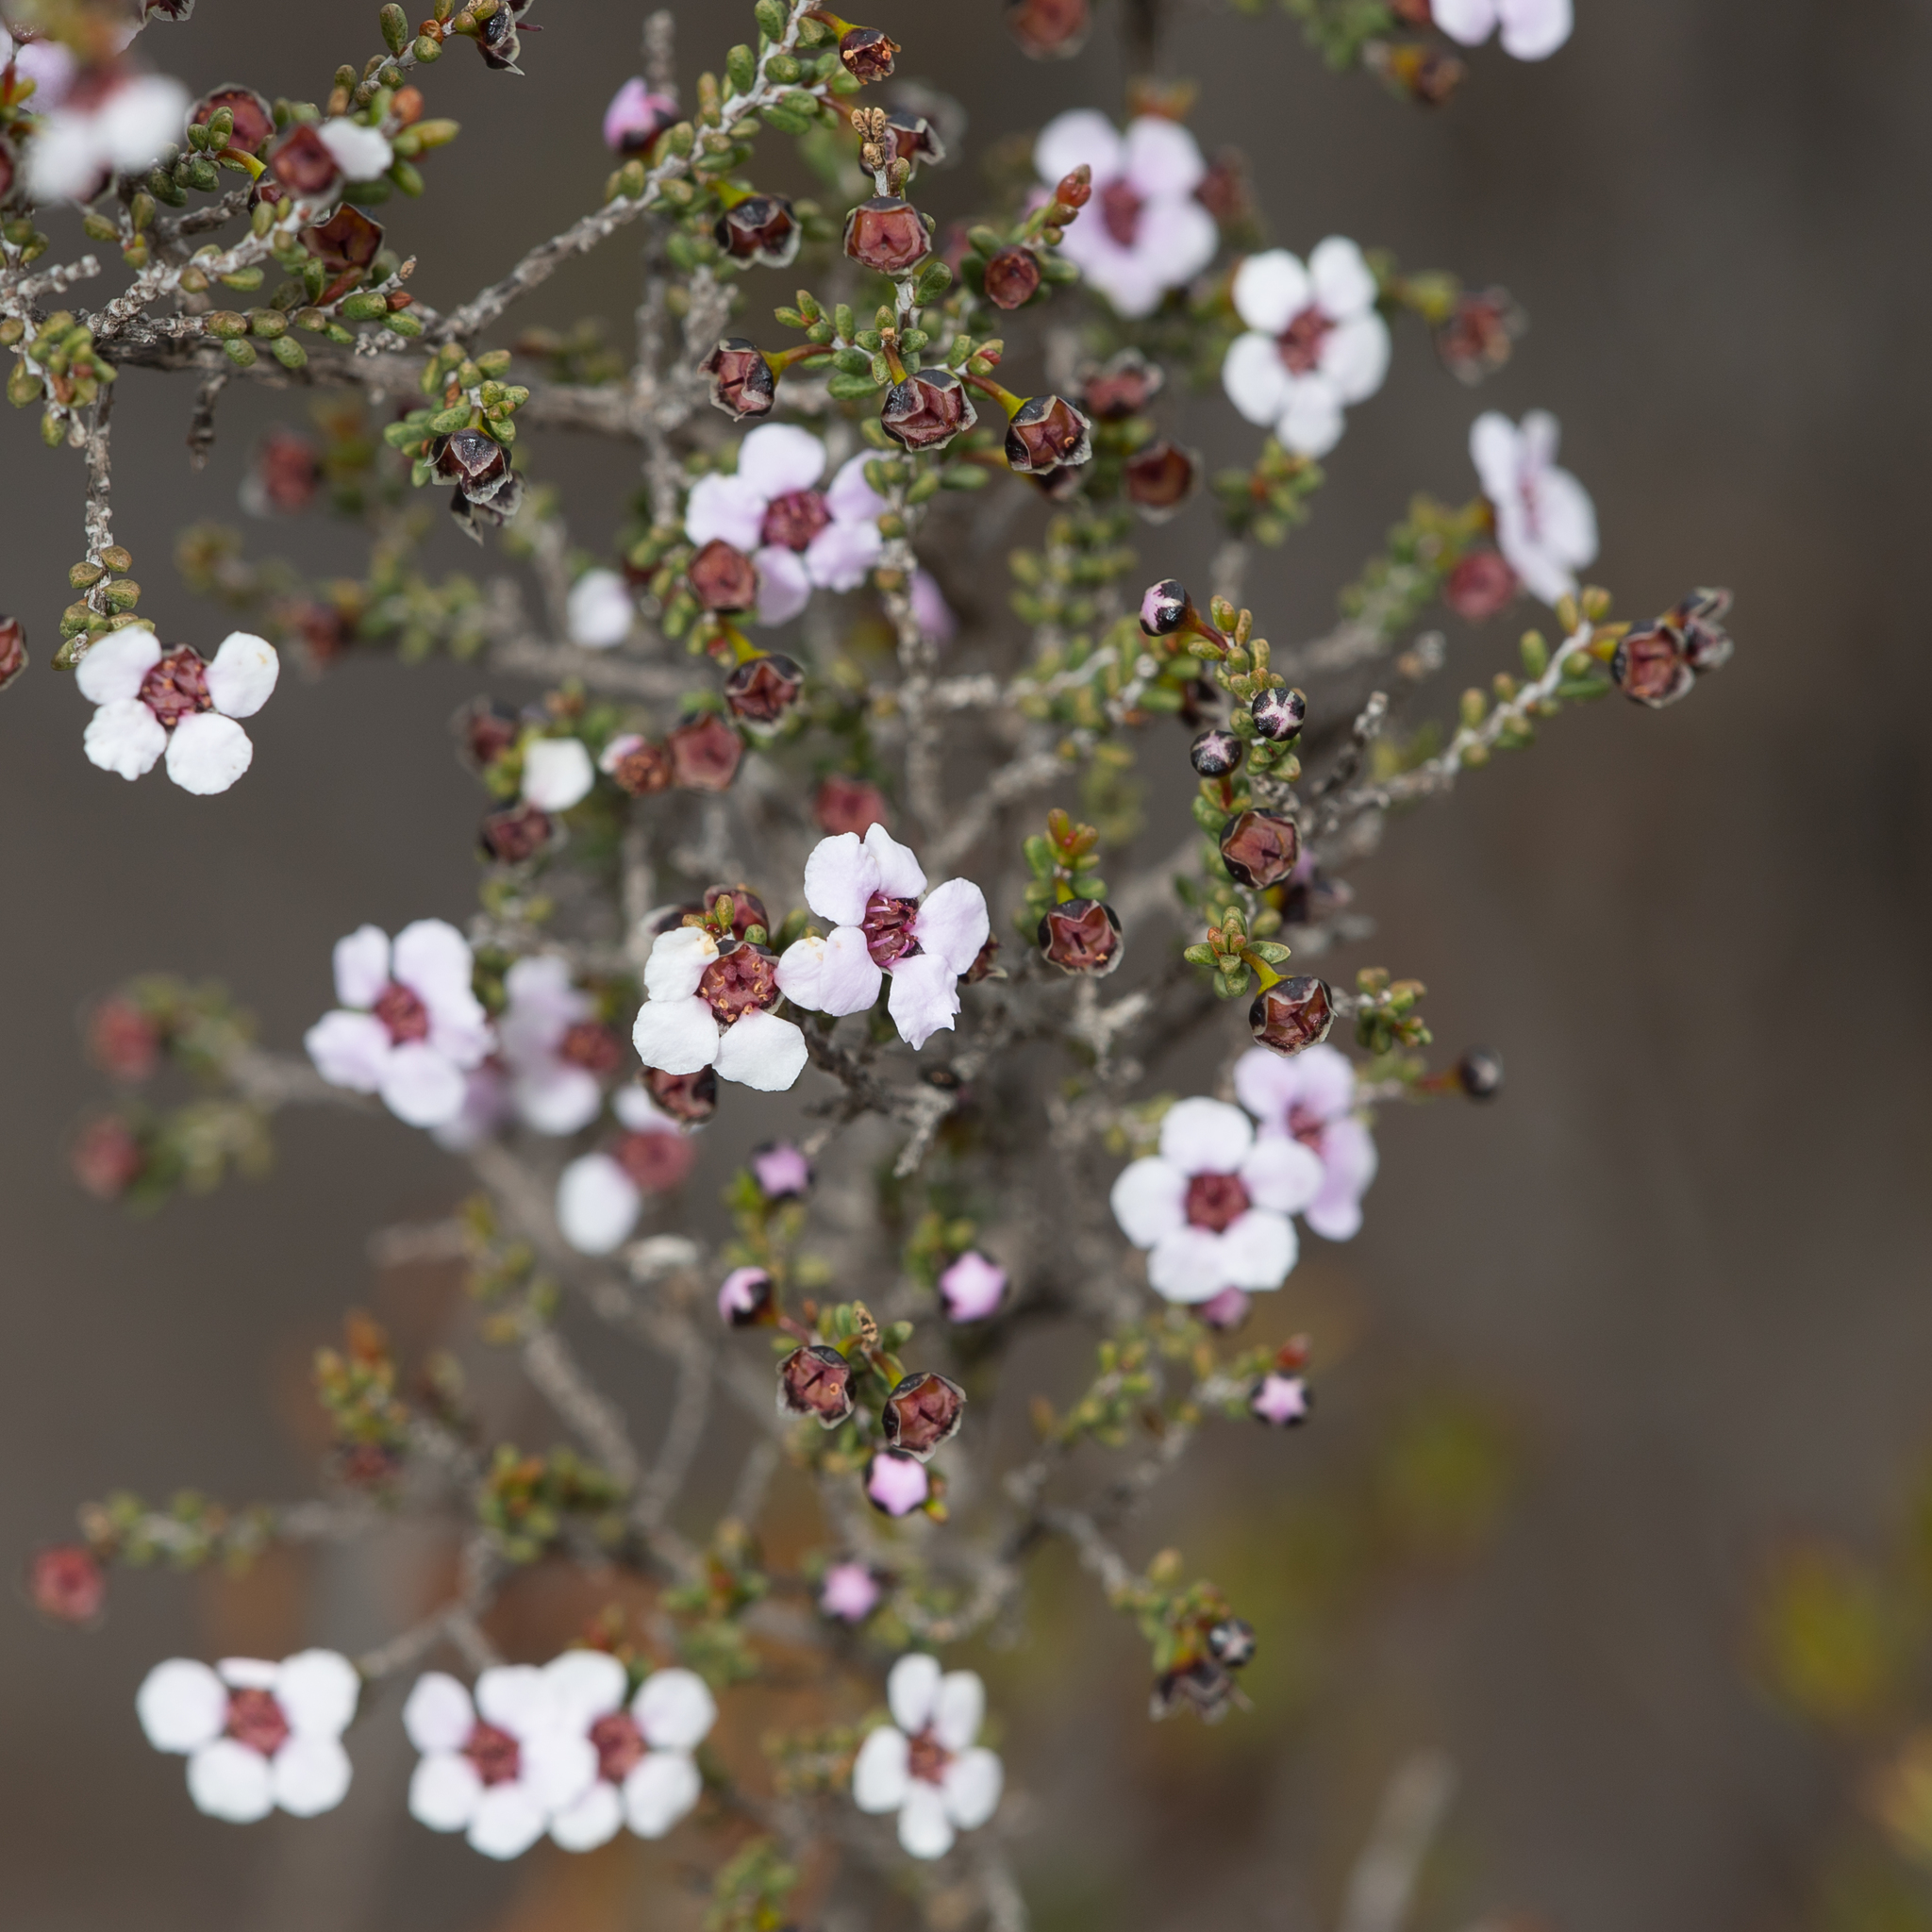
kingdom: Plantae
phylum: Tracheophyta
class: Magnoliopsida
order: Myrtales
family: Myrtaceae
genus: Rinzia
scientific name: Rinzia orientalis
